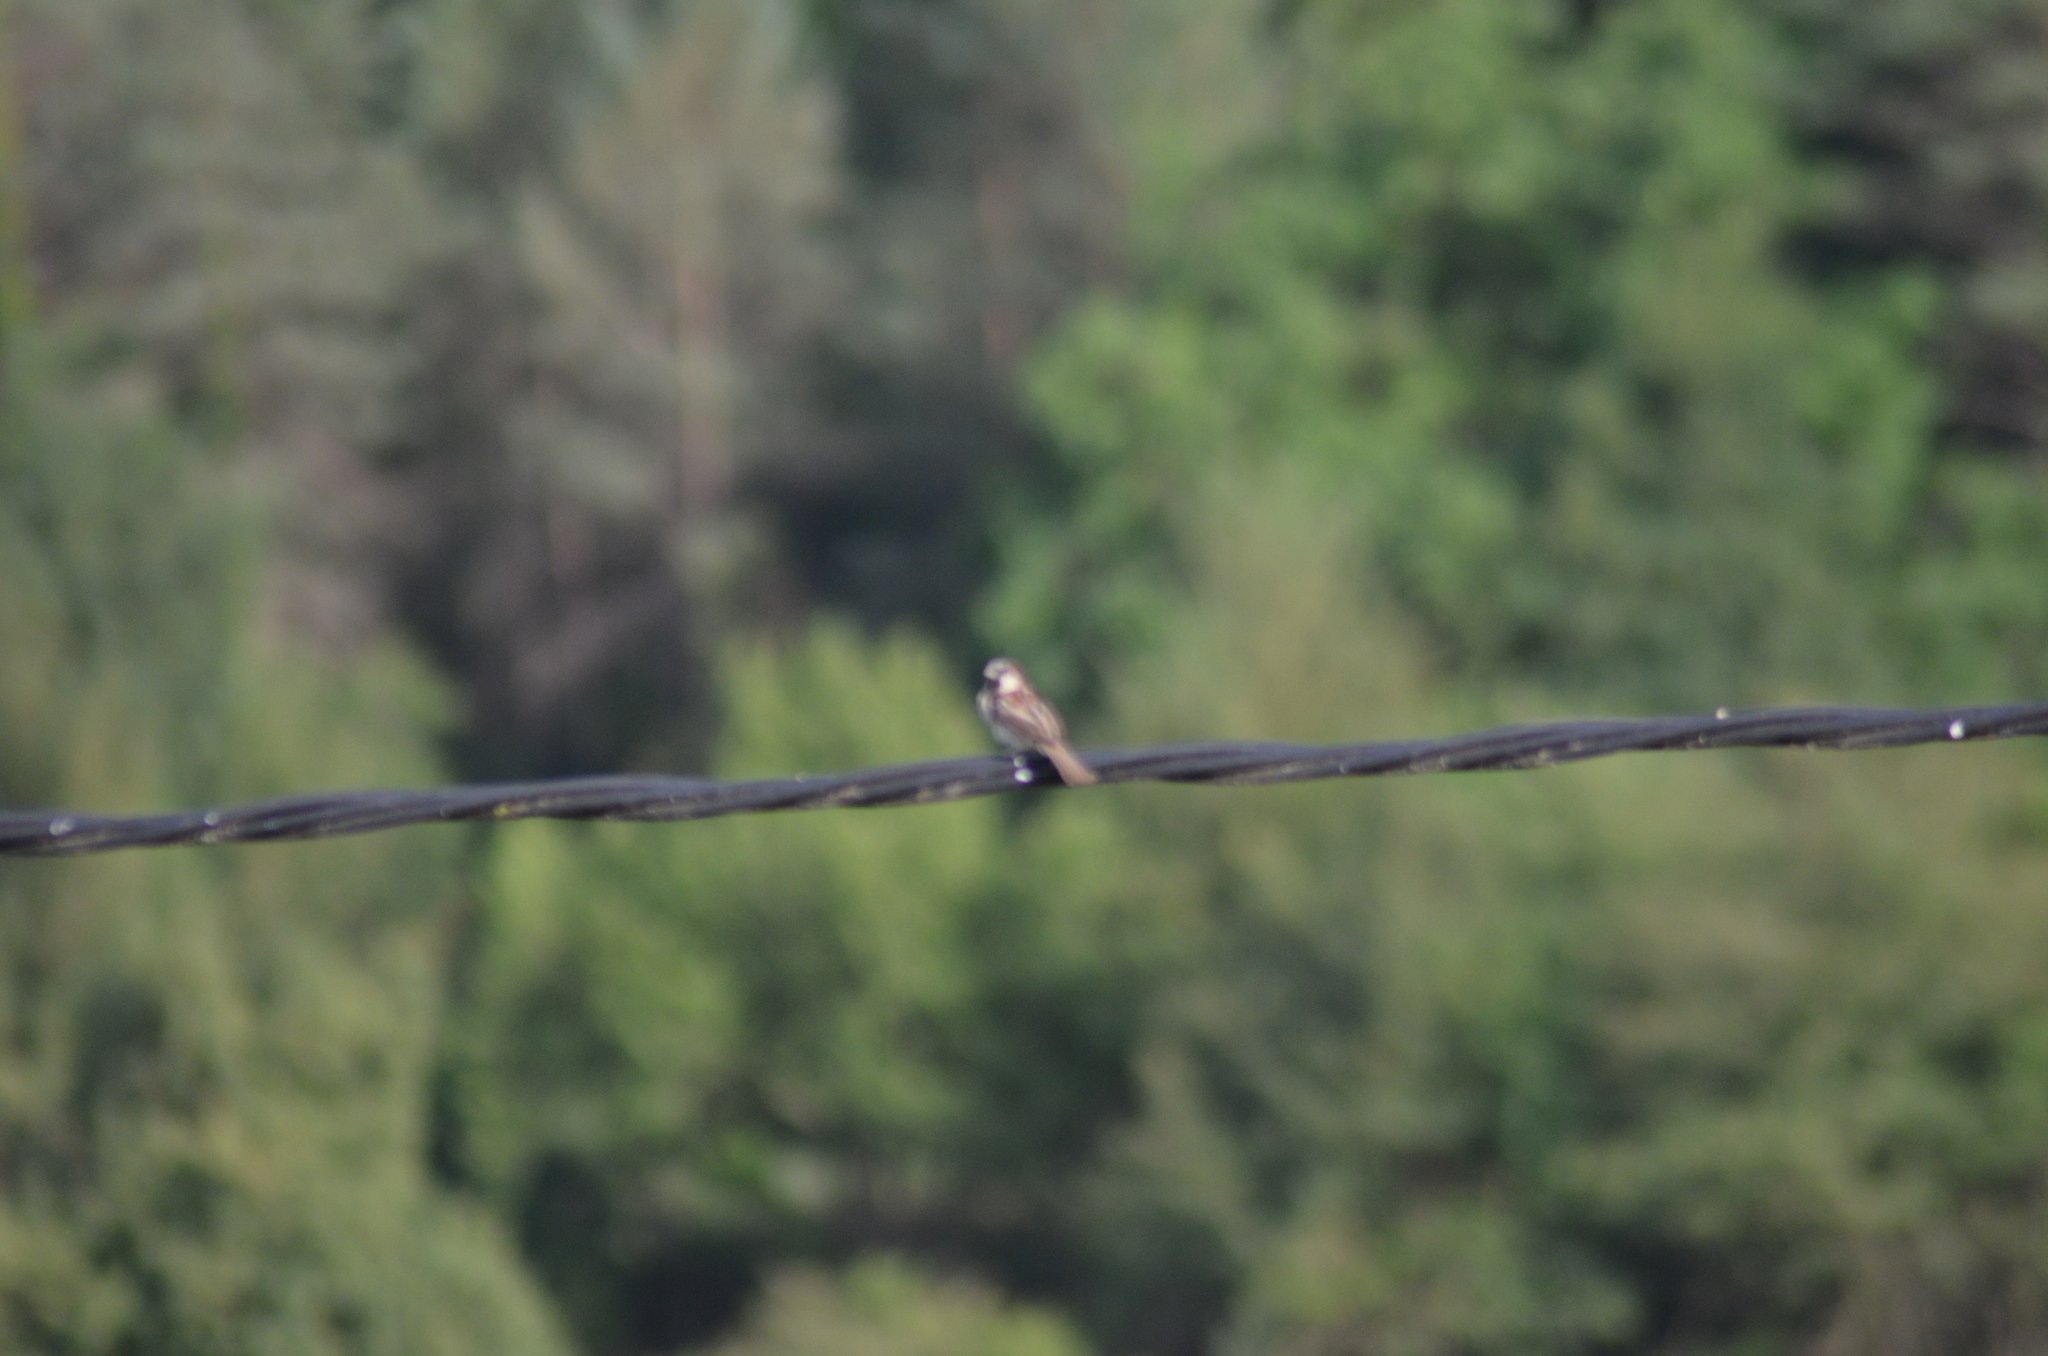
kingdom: Animalia
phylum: Chordata
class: Aves
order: Passeriformes
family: Passeridae
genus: Passer
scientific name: Passer domesticus
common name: House sparrow
